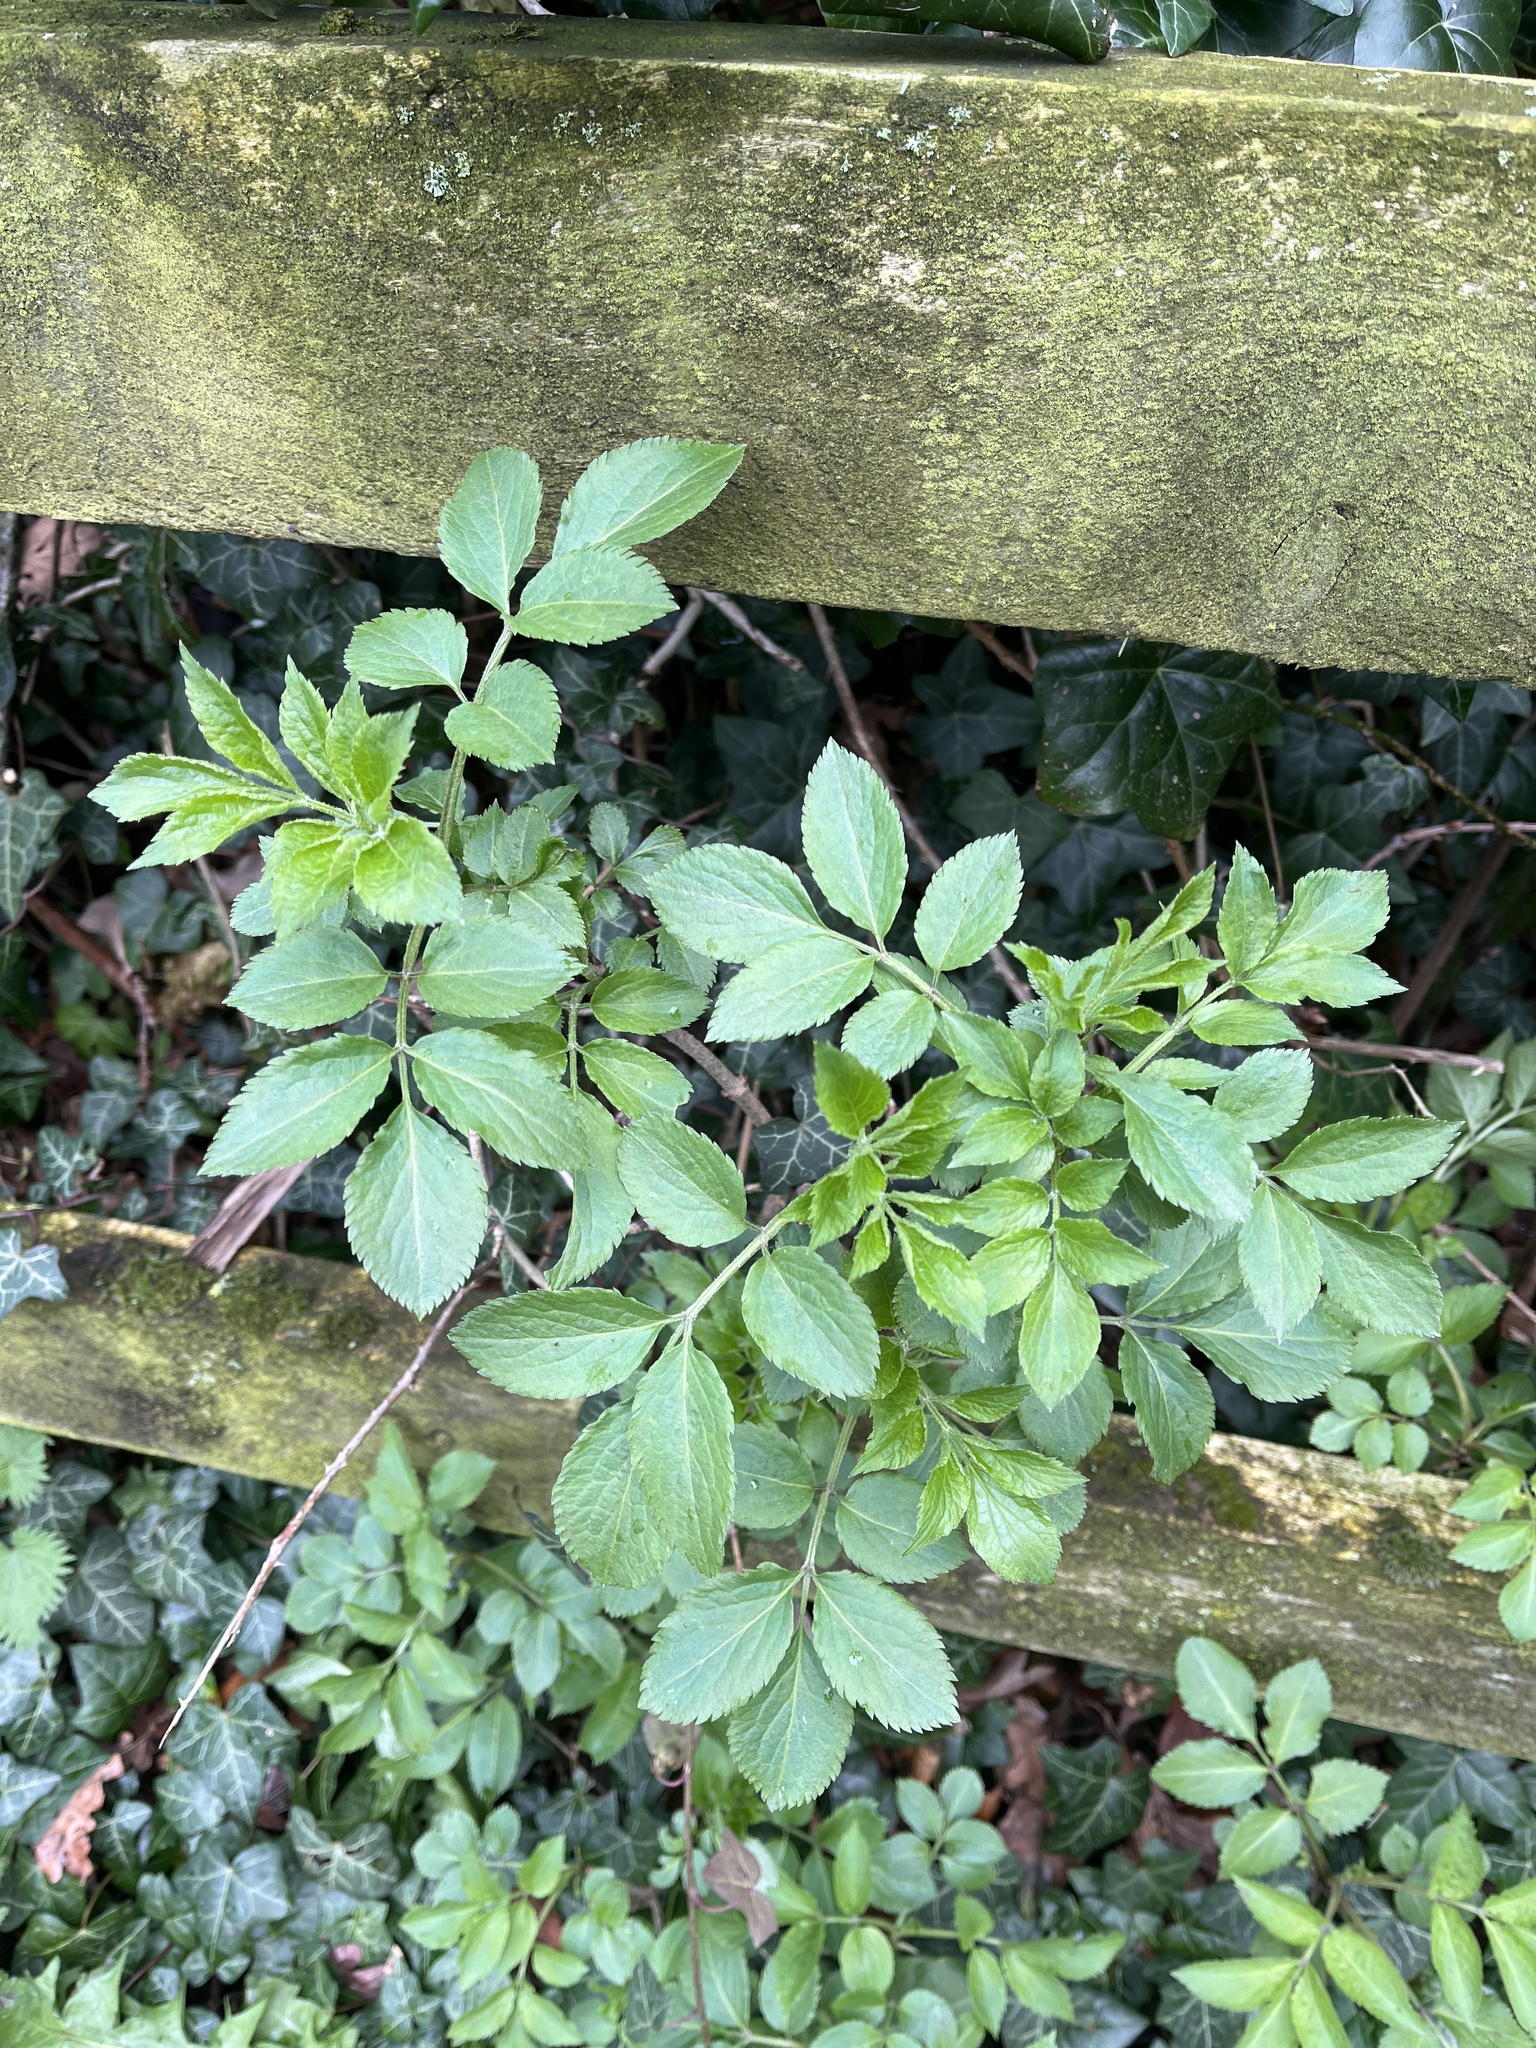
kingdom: Plantae
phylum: Tracheophyta
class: Magnoliopsida
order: Dipsacales
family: Viburnaceae
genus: Sambucus
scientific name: Sambucus nigra
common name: Elder
